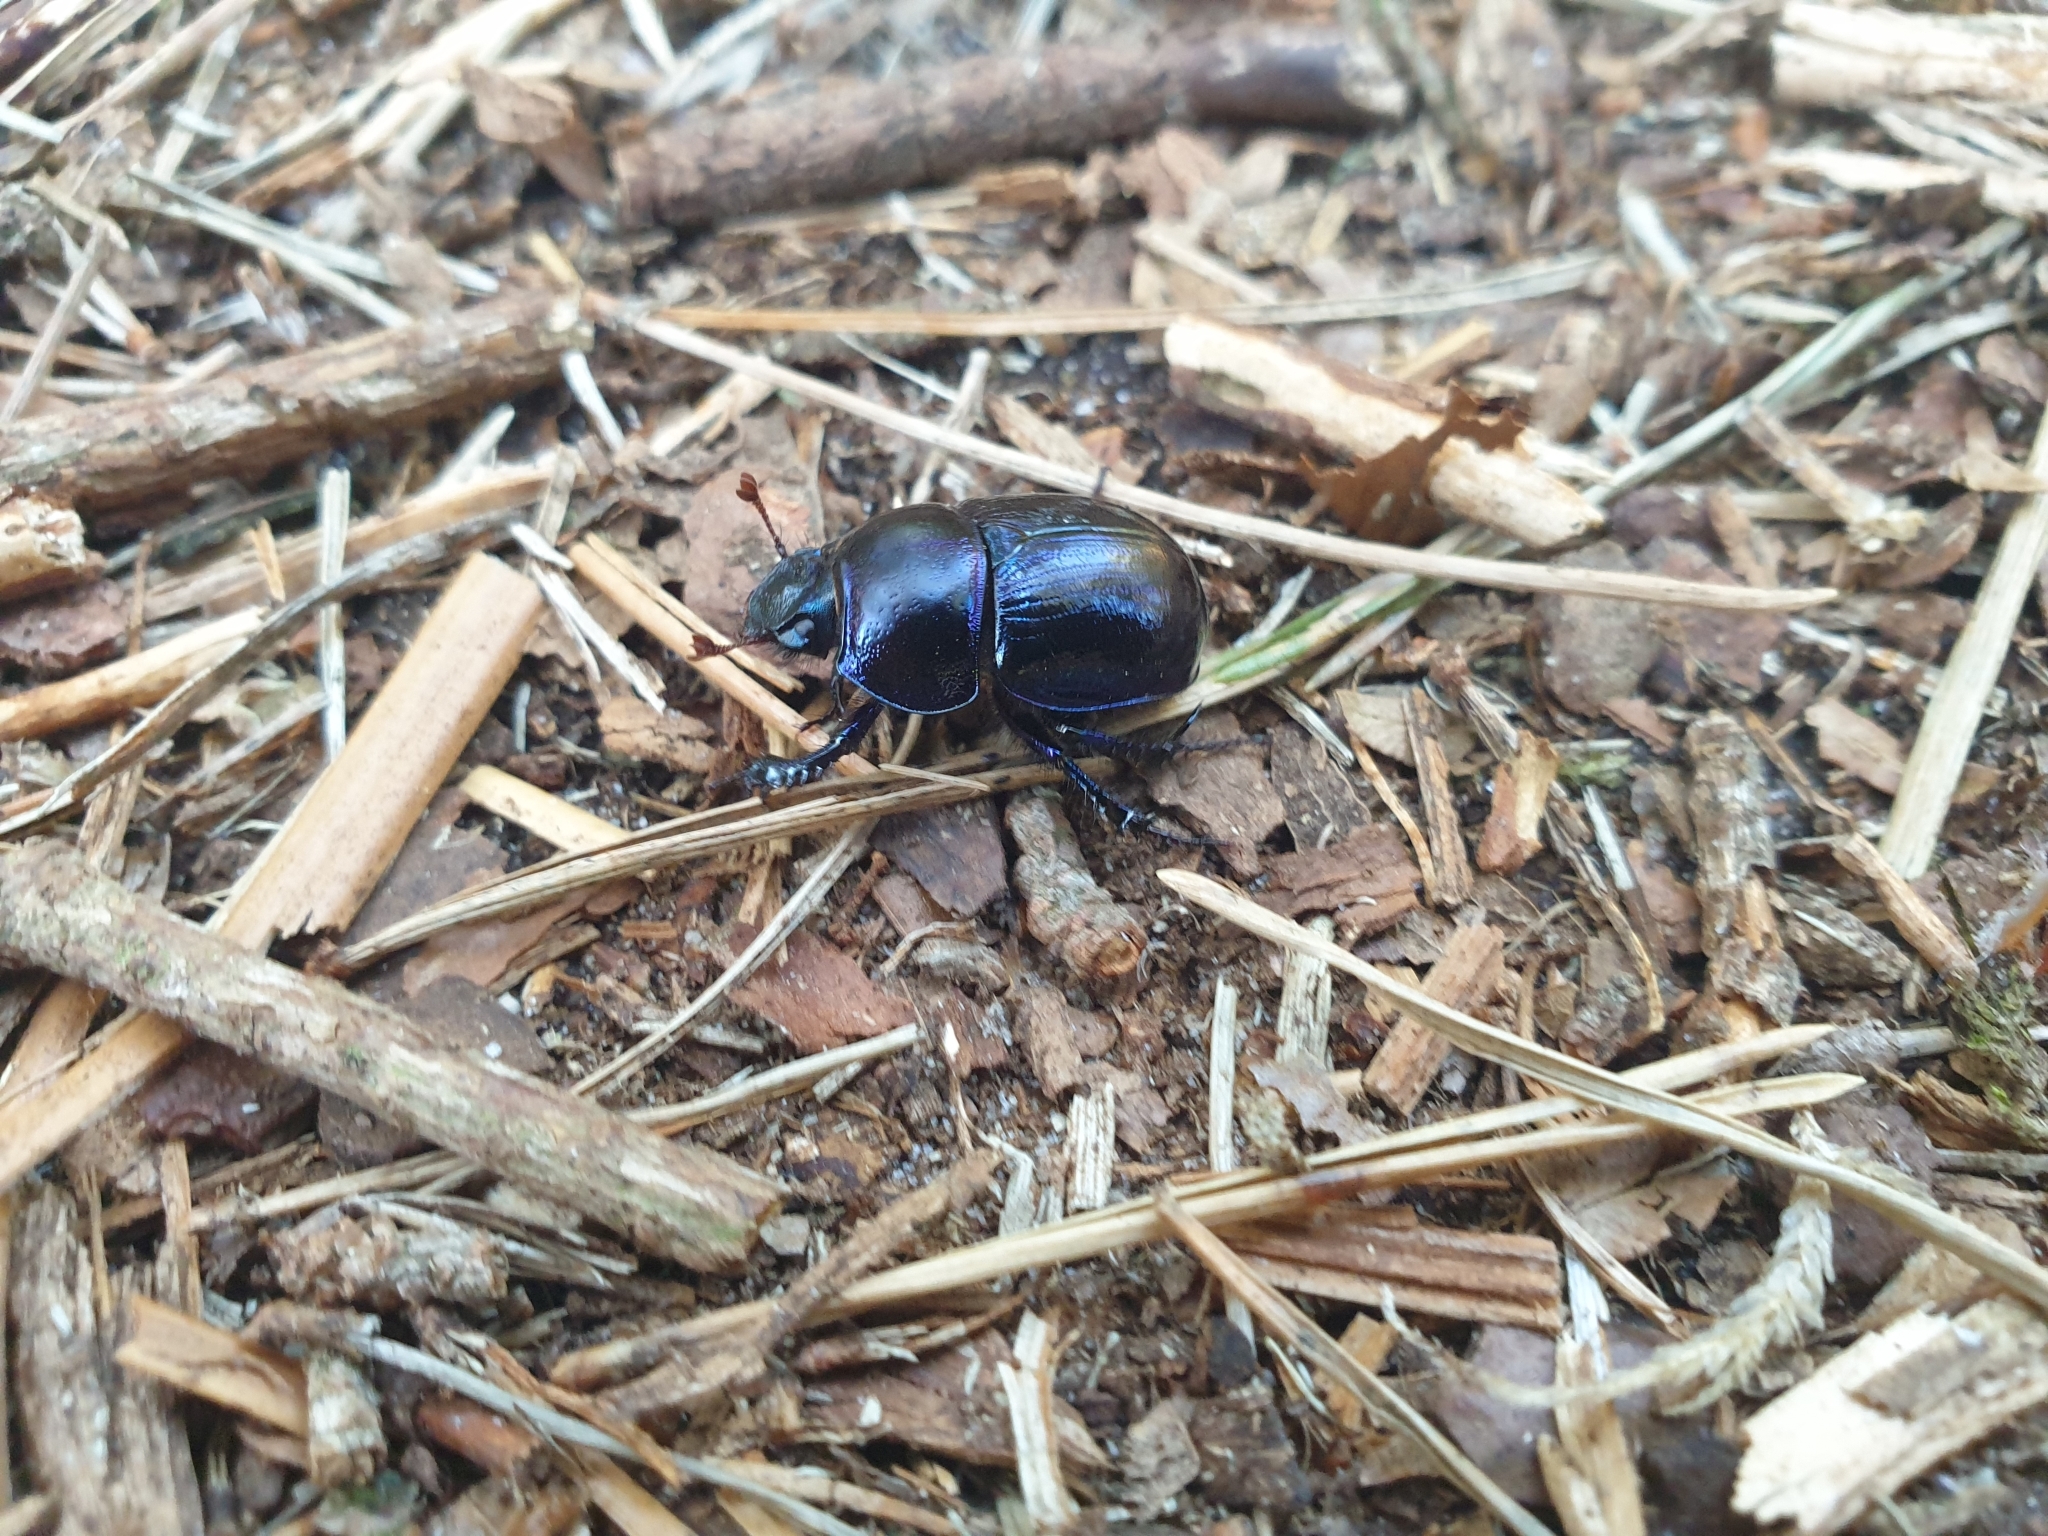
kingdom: Animalia
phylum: Arthropoda
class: Insecta
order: Coleoptera
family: Geotrupidae
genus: Anoplotrupes
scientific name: Anoplotrupes stercorosus
